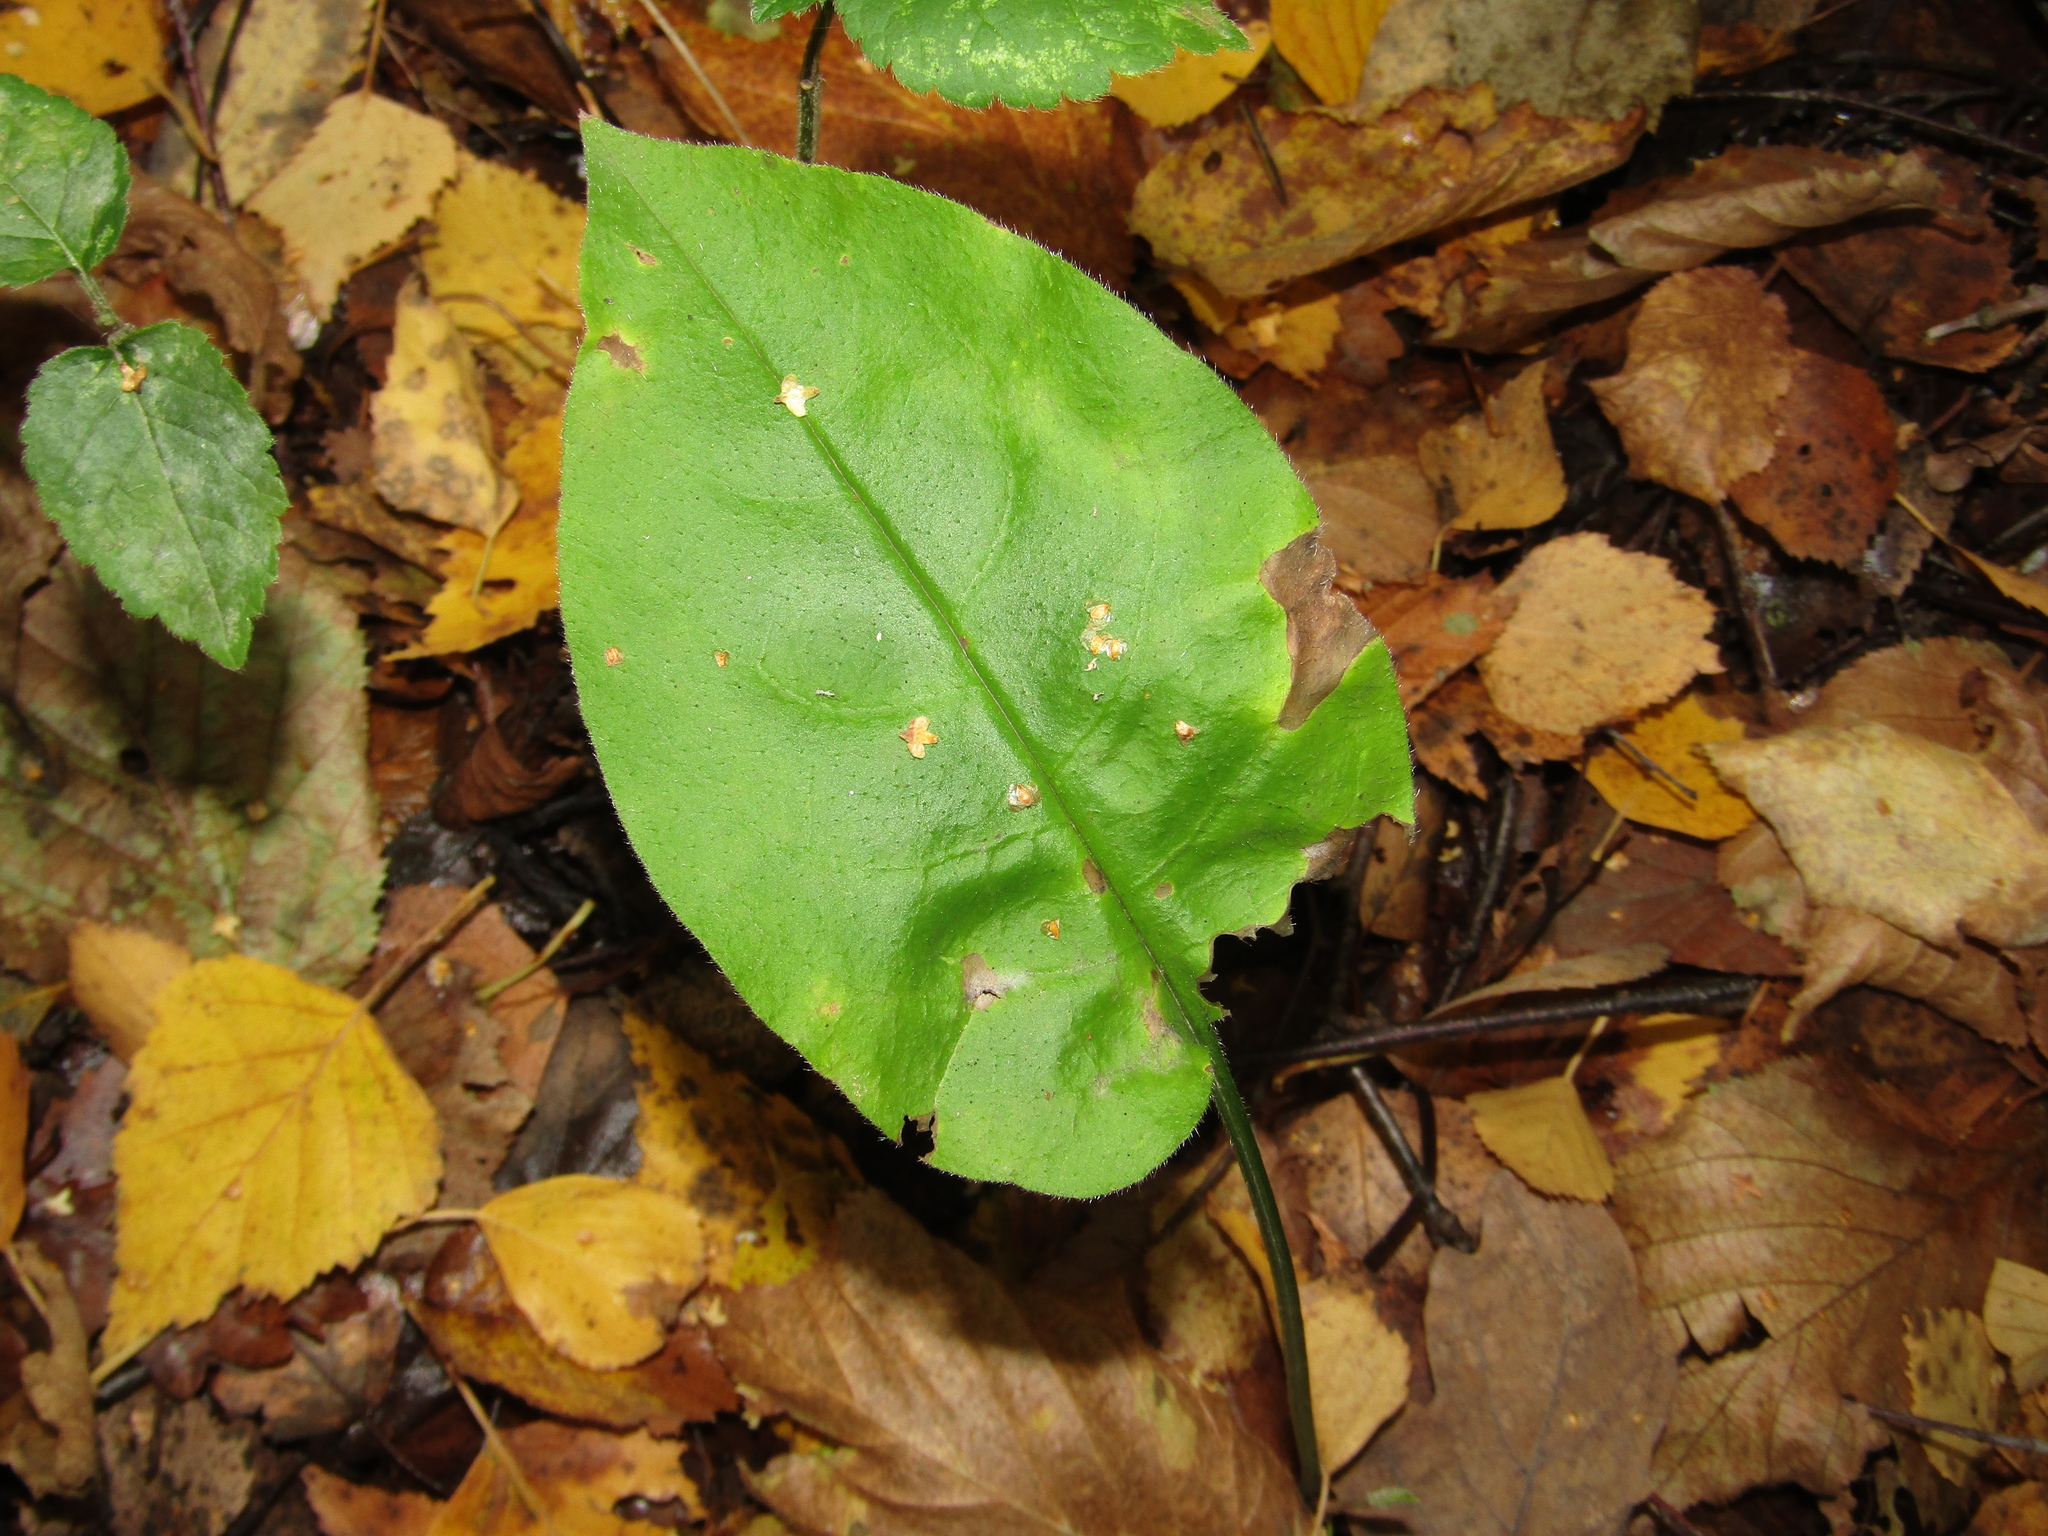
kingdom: Plantae
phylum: Tracheophyta
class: Magnoliopsida
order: Boraginales
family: Boraginaceae
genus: Pulmonaria
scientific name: Pulmonaria obscura
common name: Suffolk lungwort
